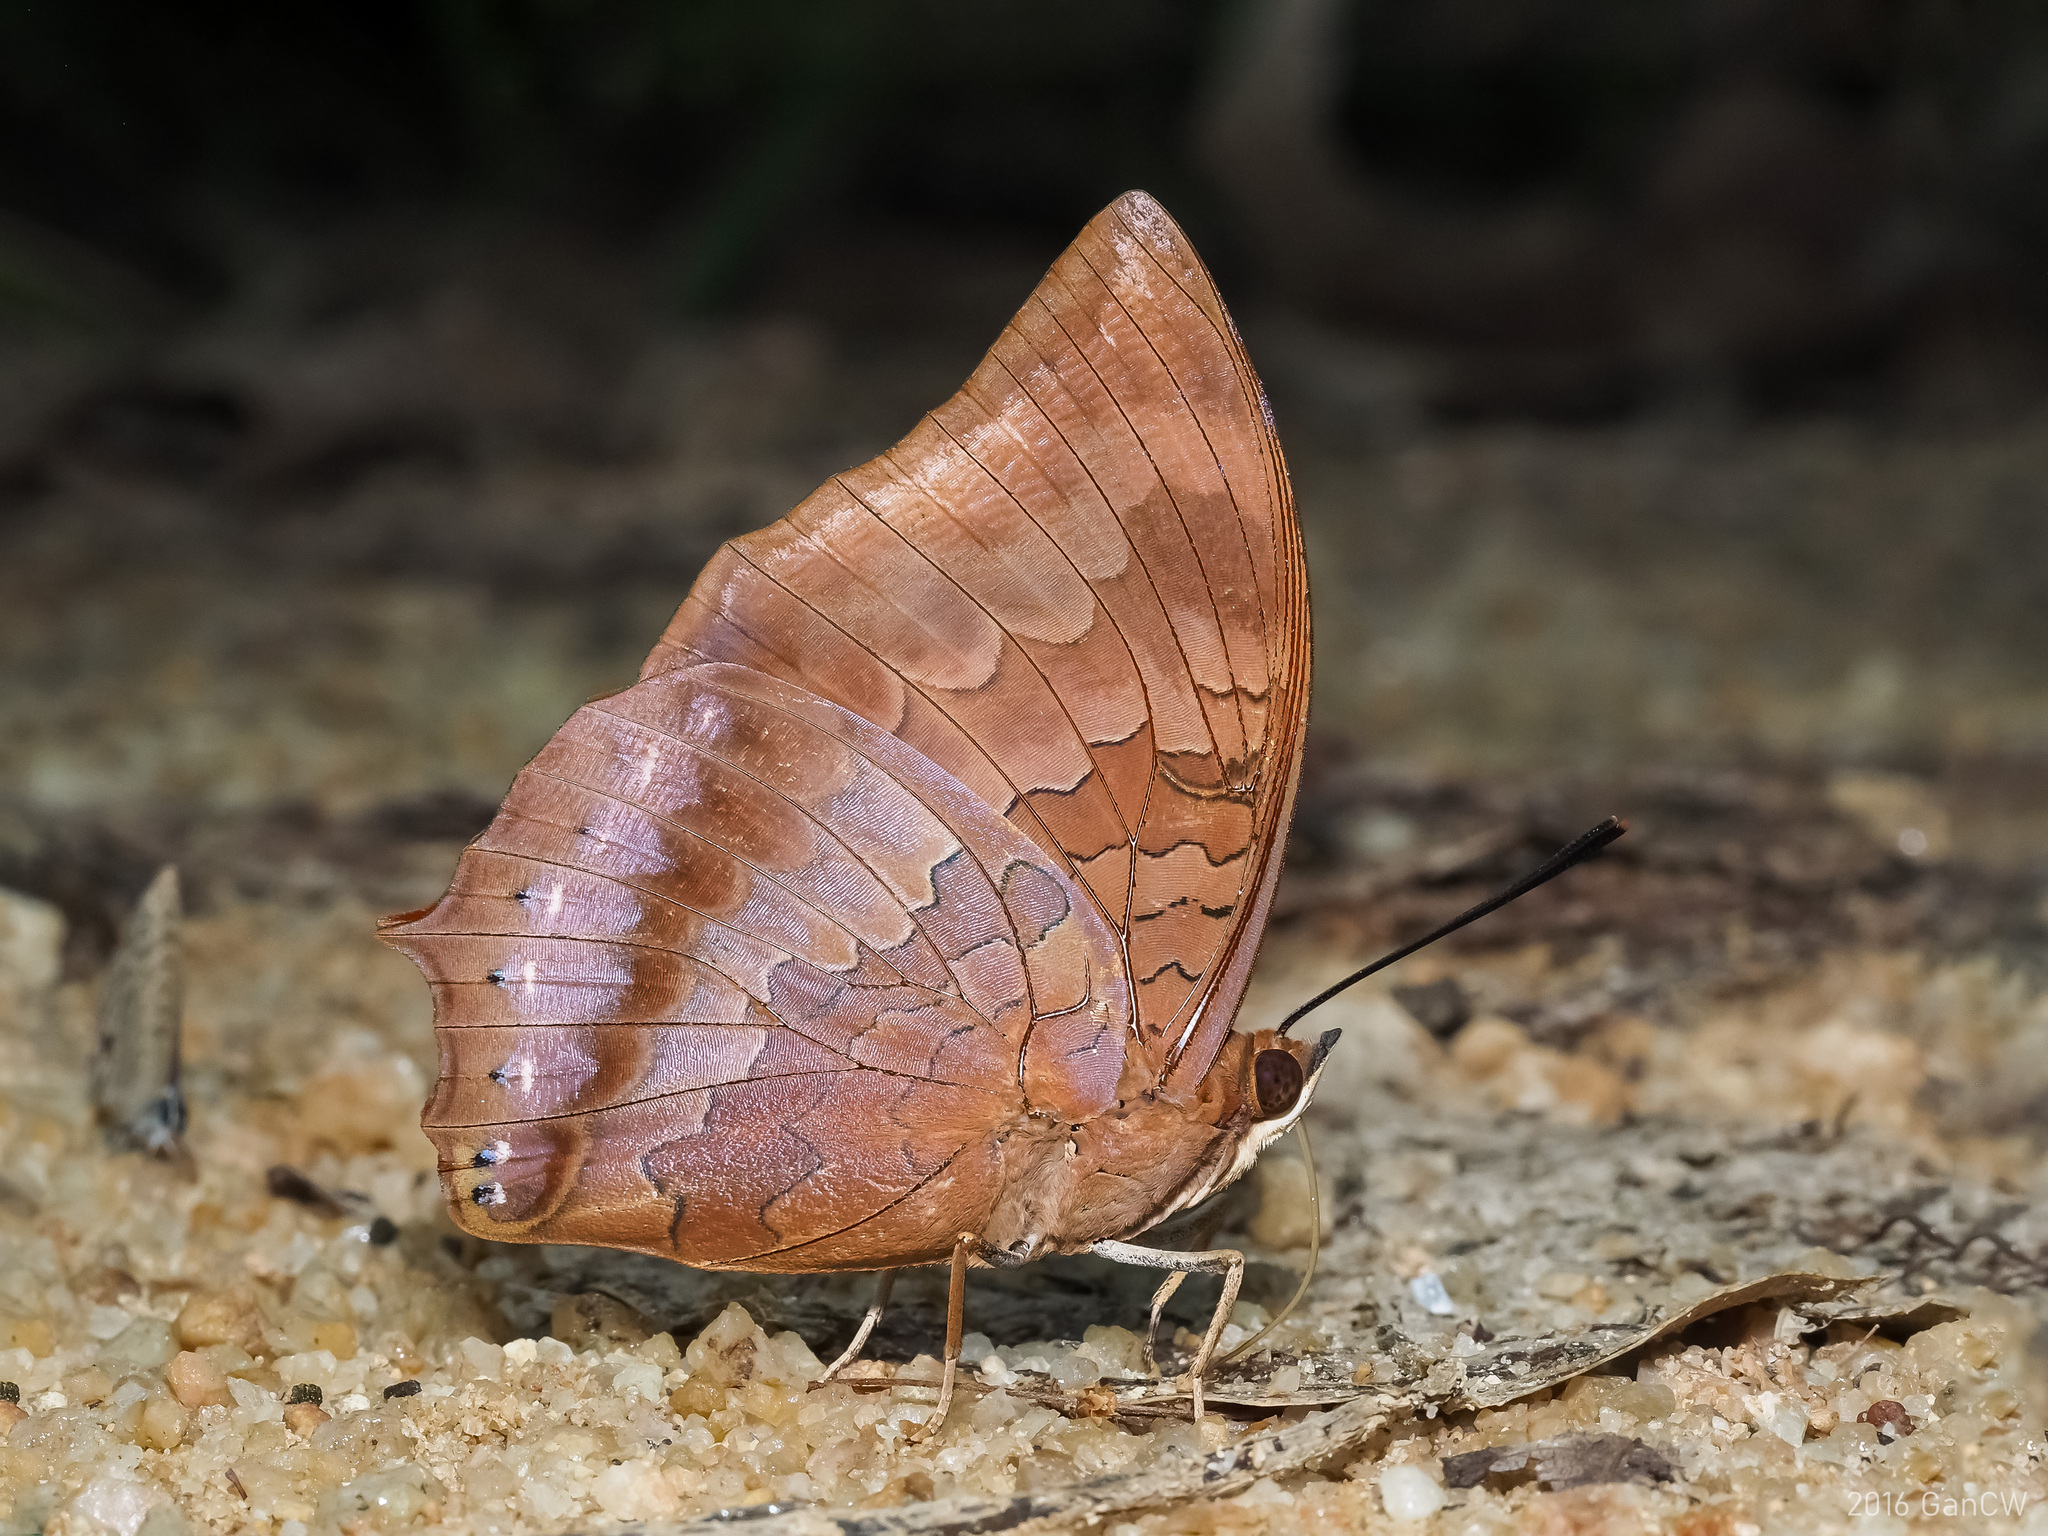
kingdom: Animalia
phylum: Arthropoda
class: Insecta
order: Lepidoptera
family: Nymphalidae
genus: Charaxes
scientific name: Charaxes bernardus
